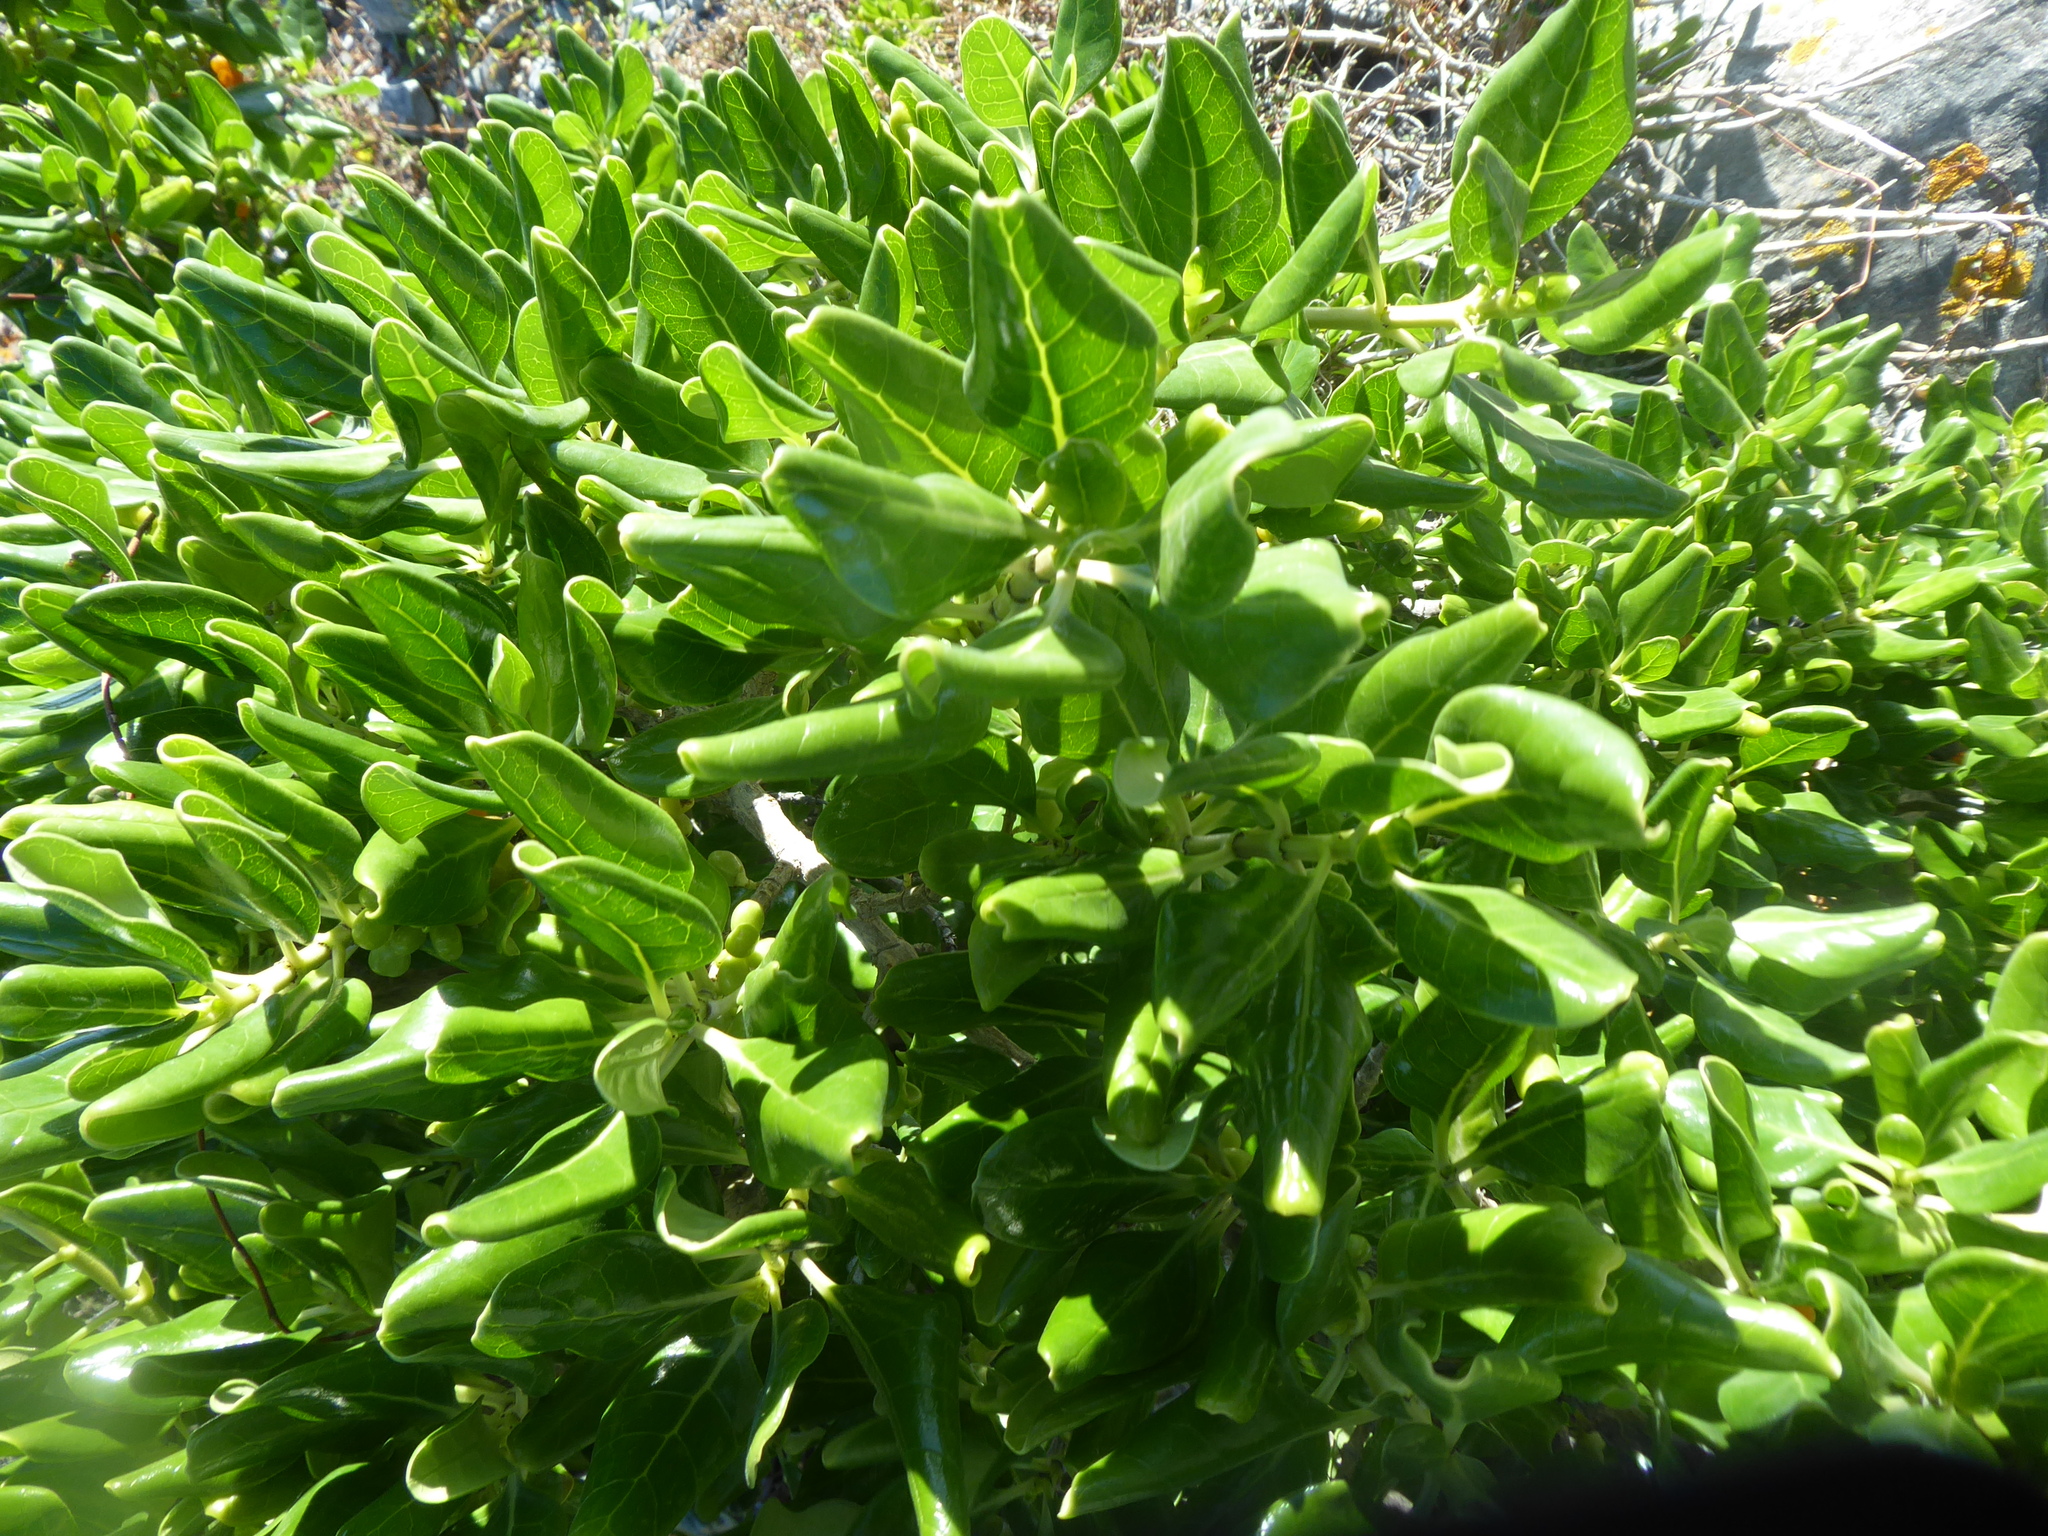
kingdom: Plantae
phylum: Tracheophyta
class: Magnoliopsida
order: Gentianales
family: Rubiaceae
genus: Coprosma
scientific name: Coprosma repens
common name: Tree bedstraw
